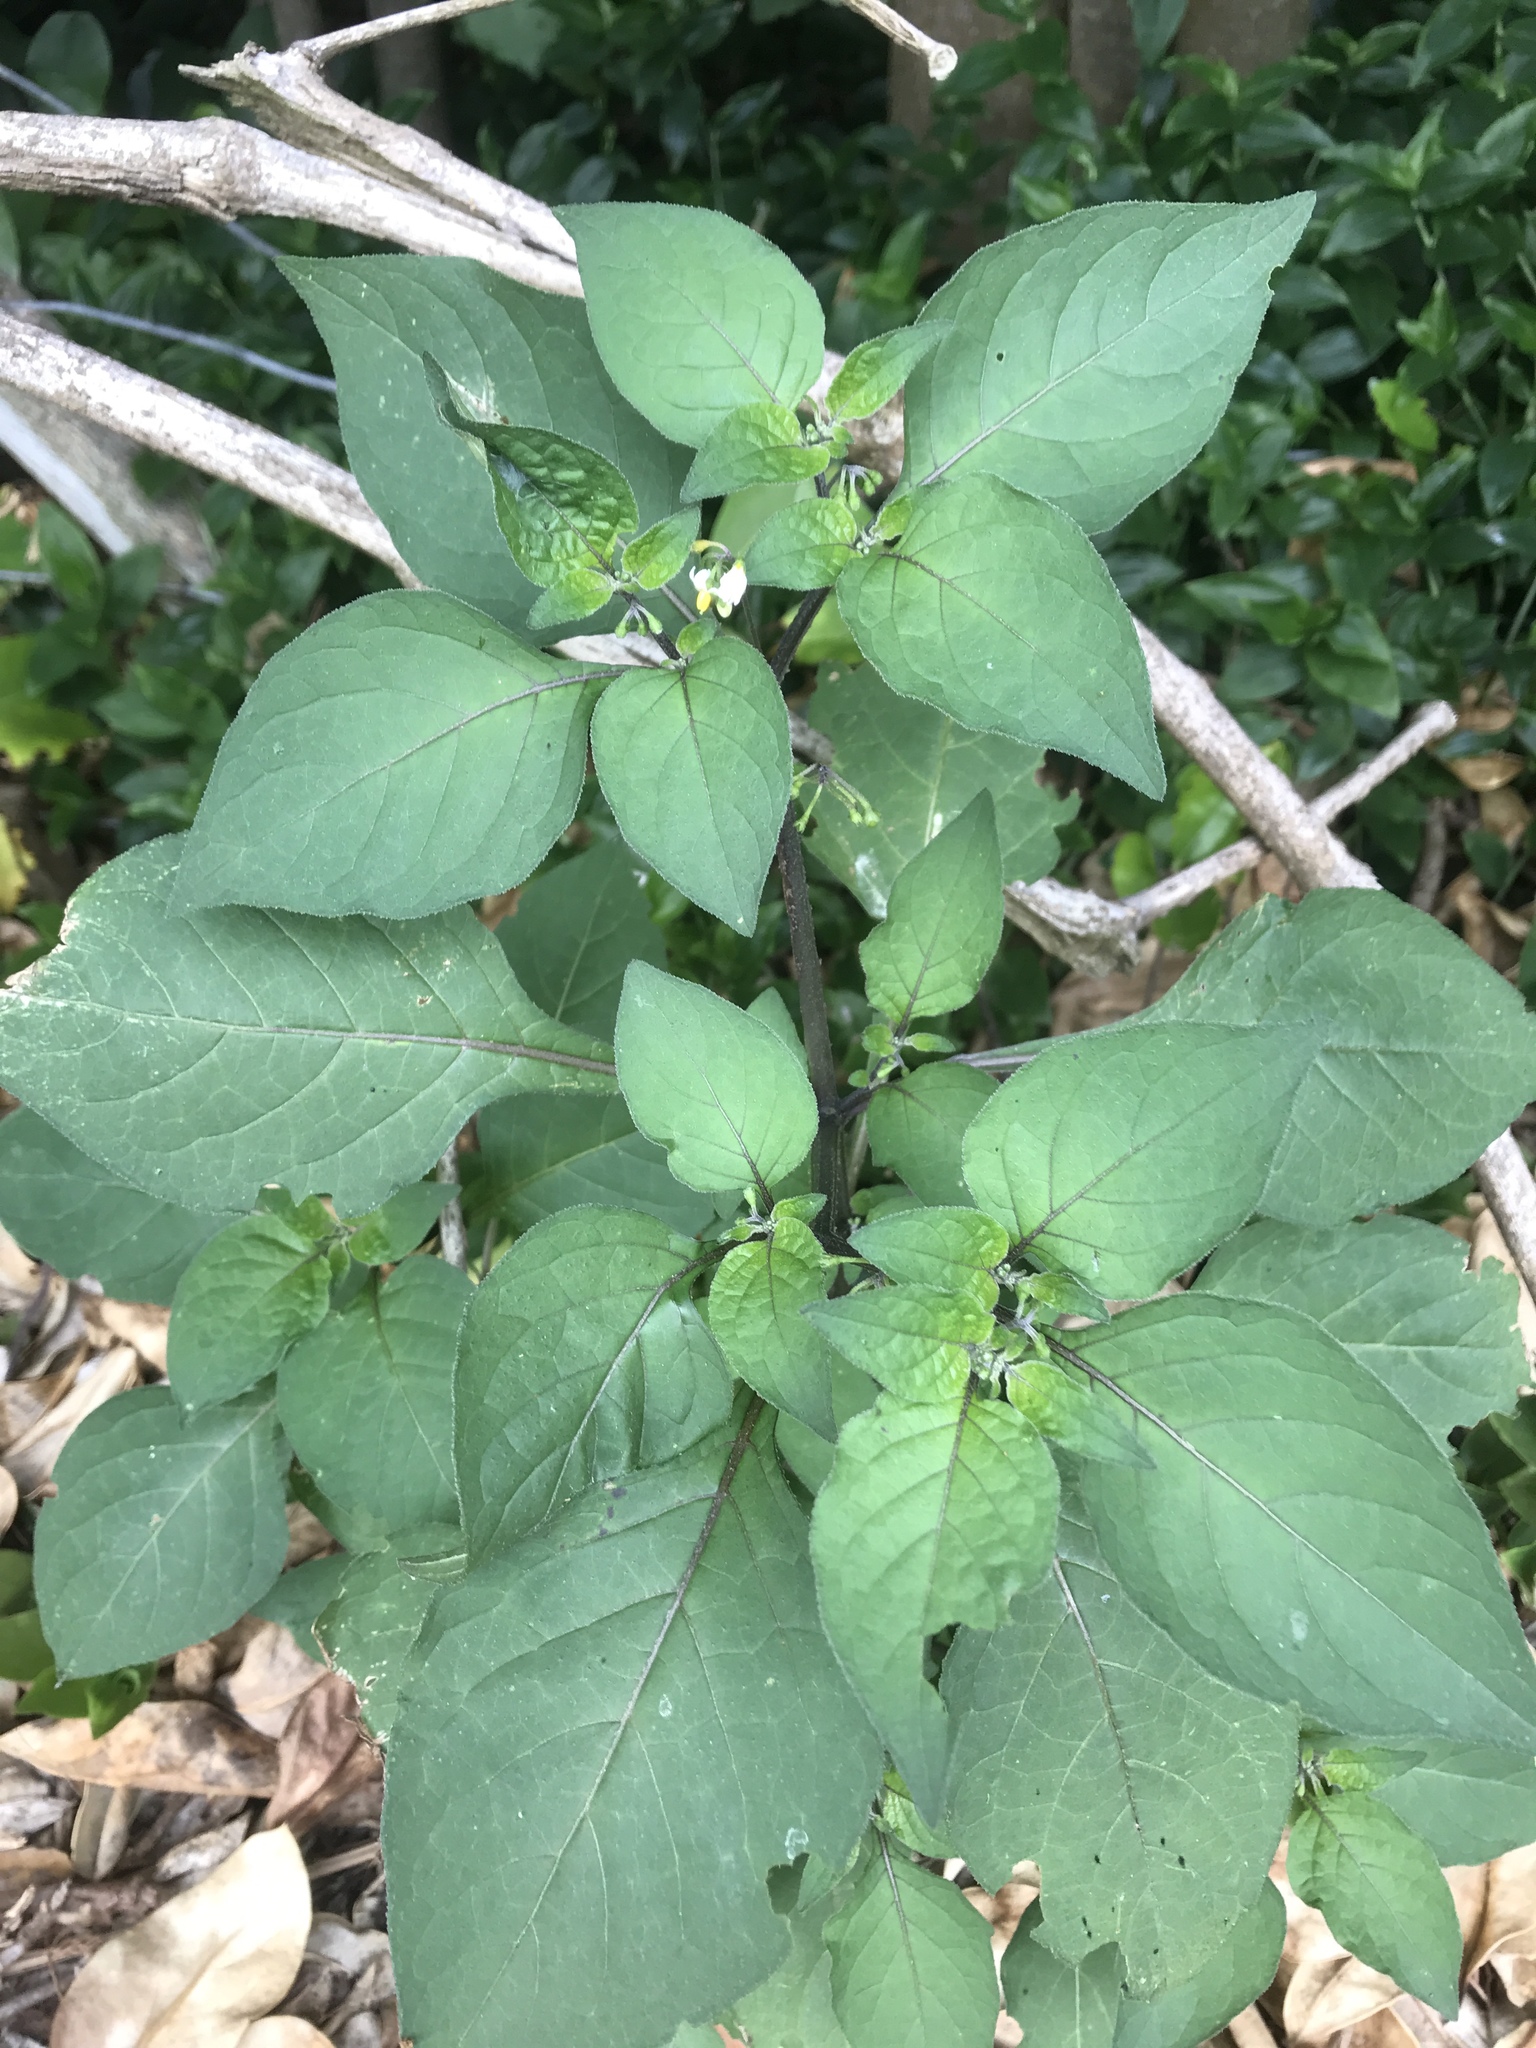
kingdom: Plantae
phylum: Tracheophyta
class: Magnoliopsida
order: Solanales
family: Solanaceae
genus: Solanum
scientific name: Solanum nigrum
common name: Black nightshade
